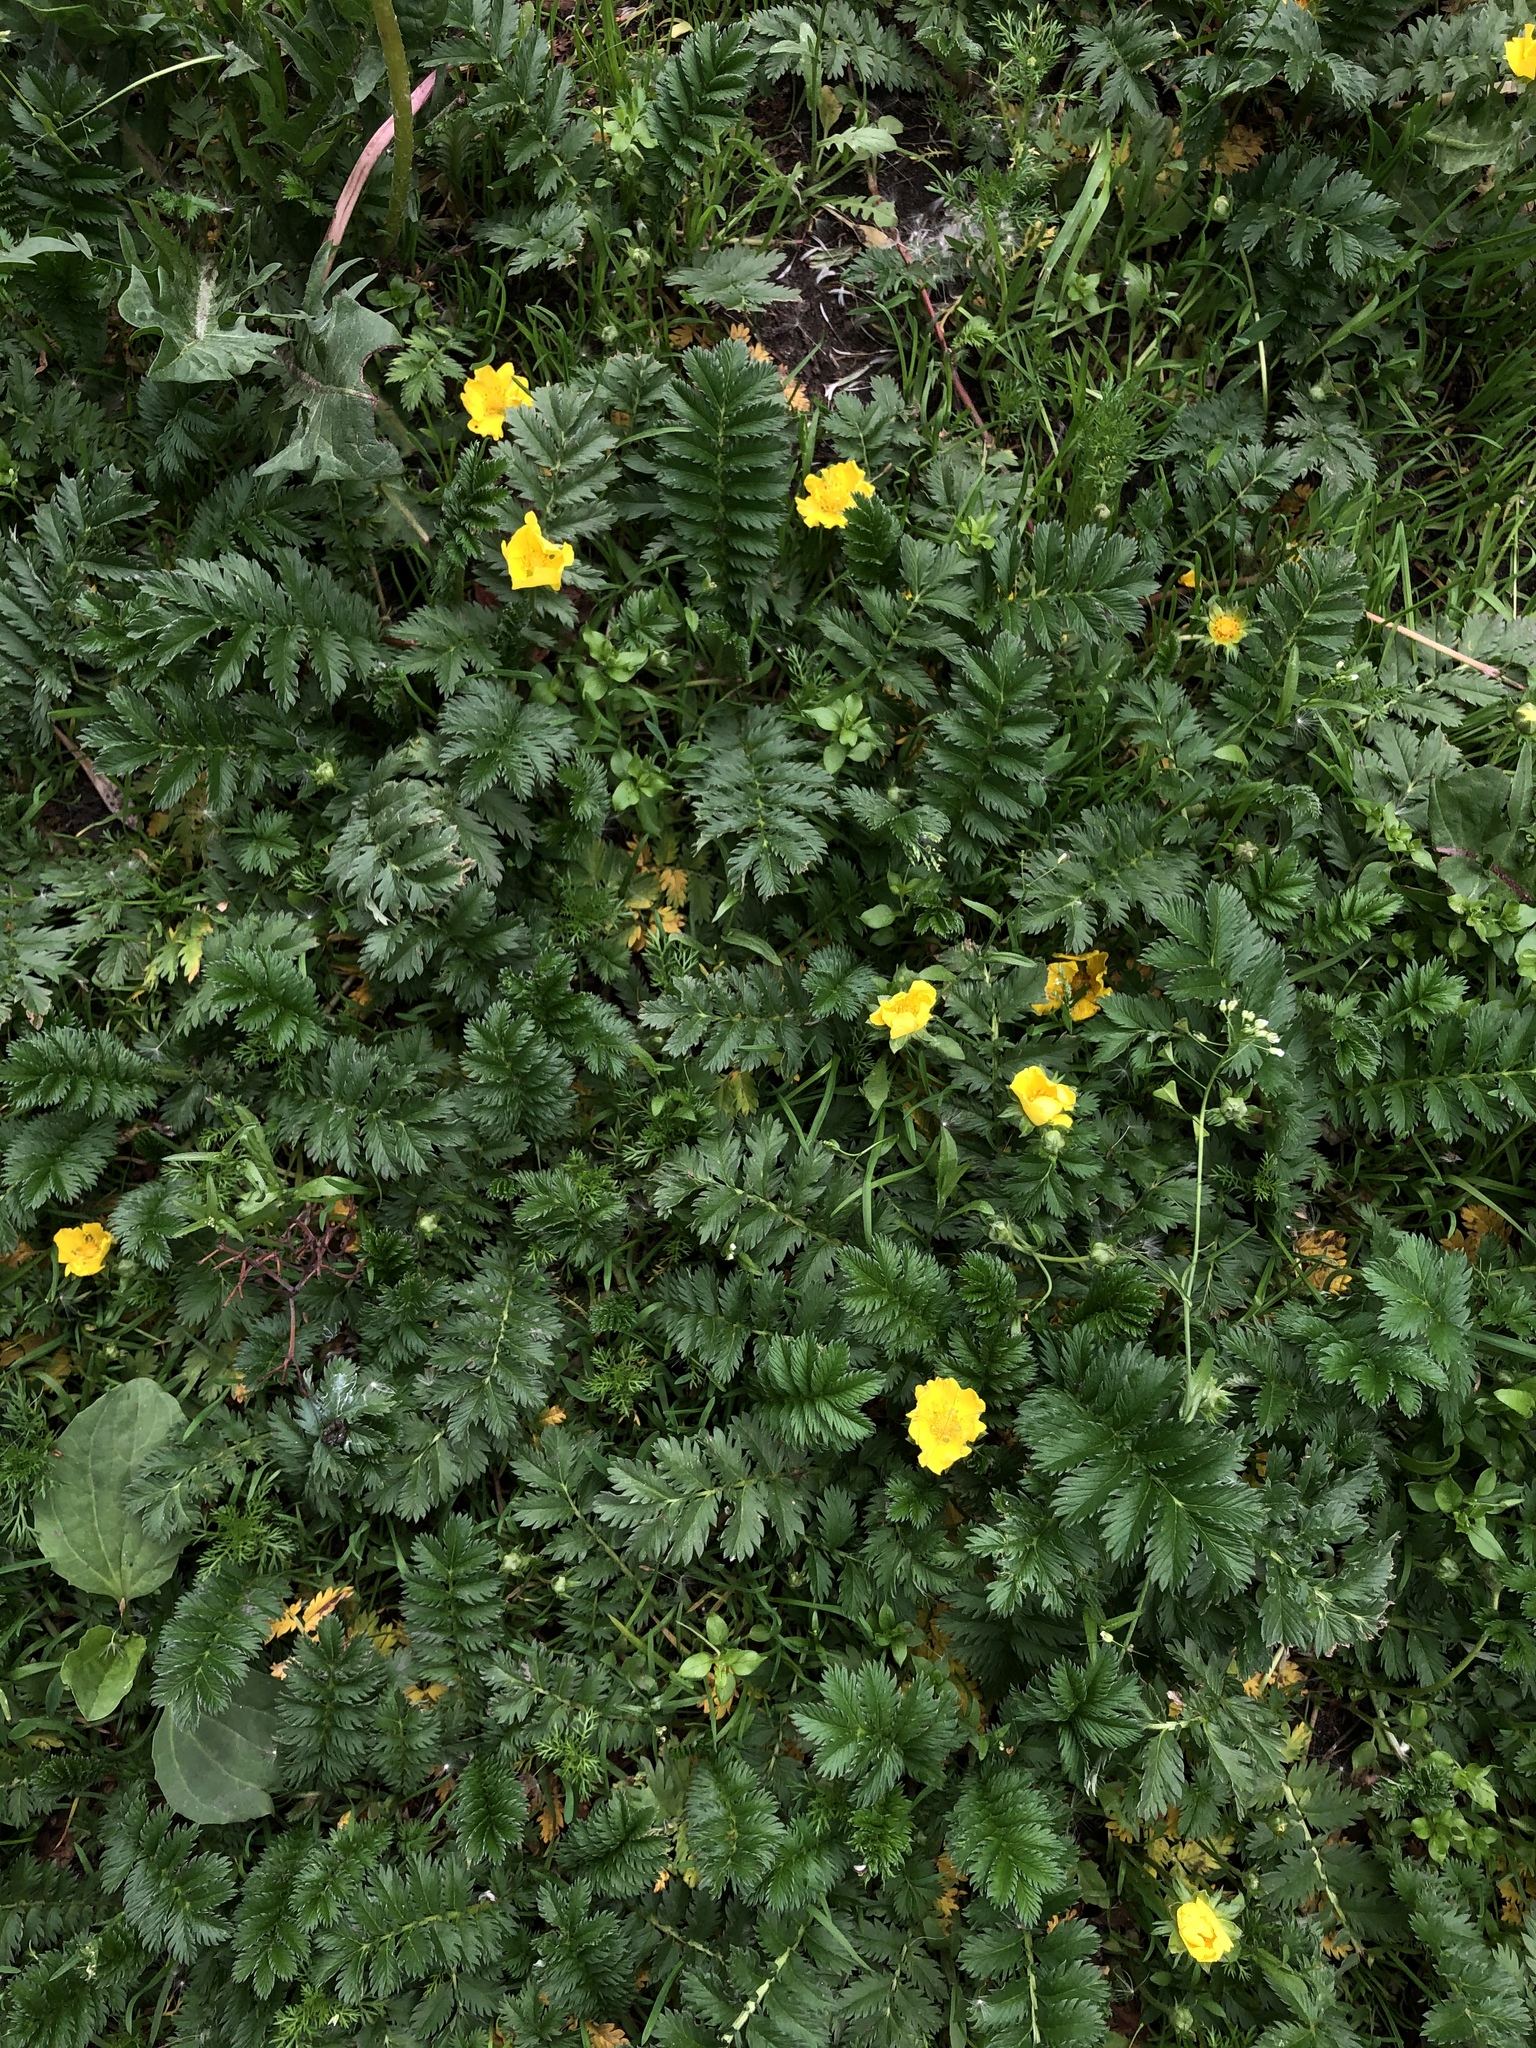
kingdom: Plantae
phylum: Tracheophyta
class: Magnoliopsida
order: Rosales
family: Rosaceae
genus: Argentina
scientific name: Argentina anserina
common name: Common silverweed
